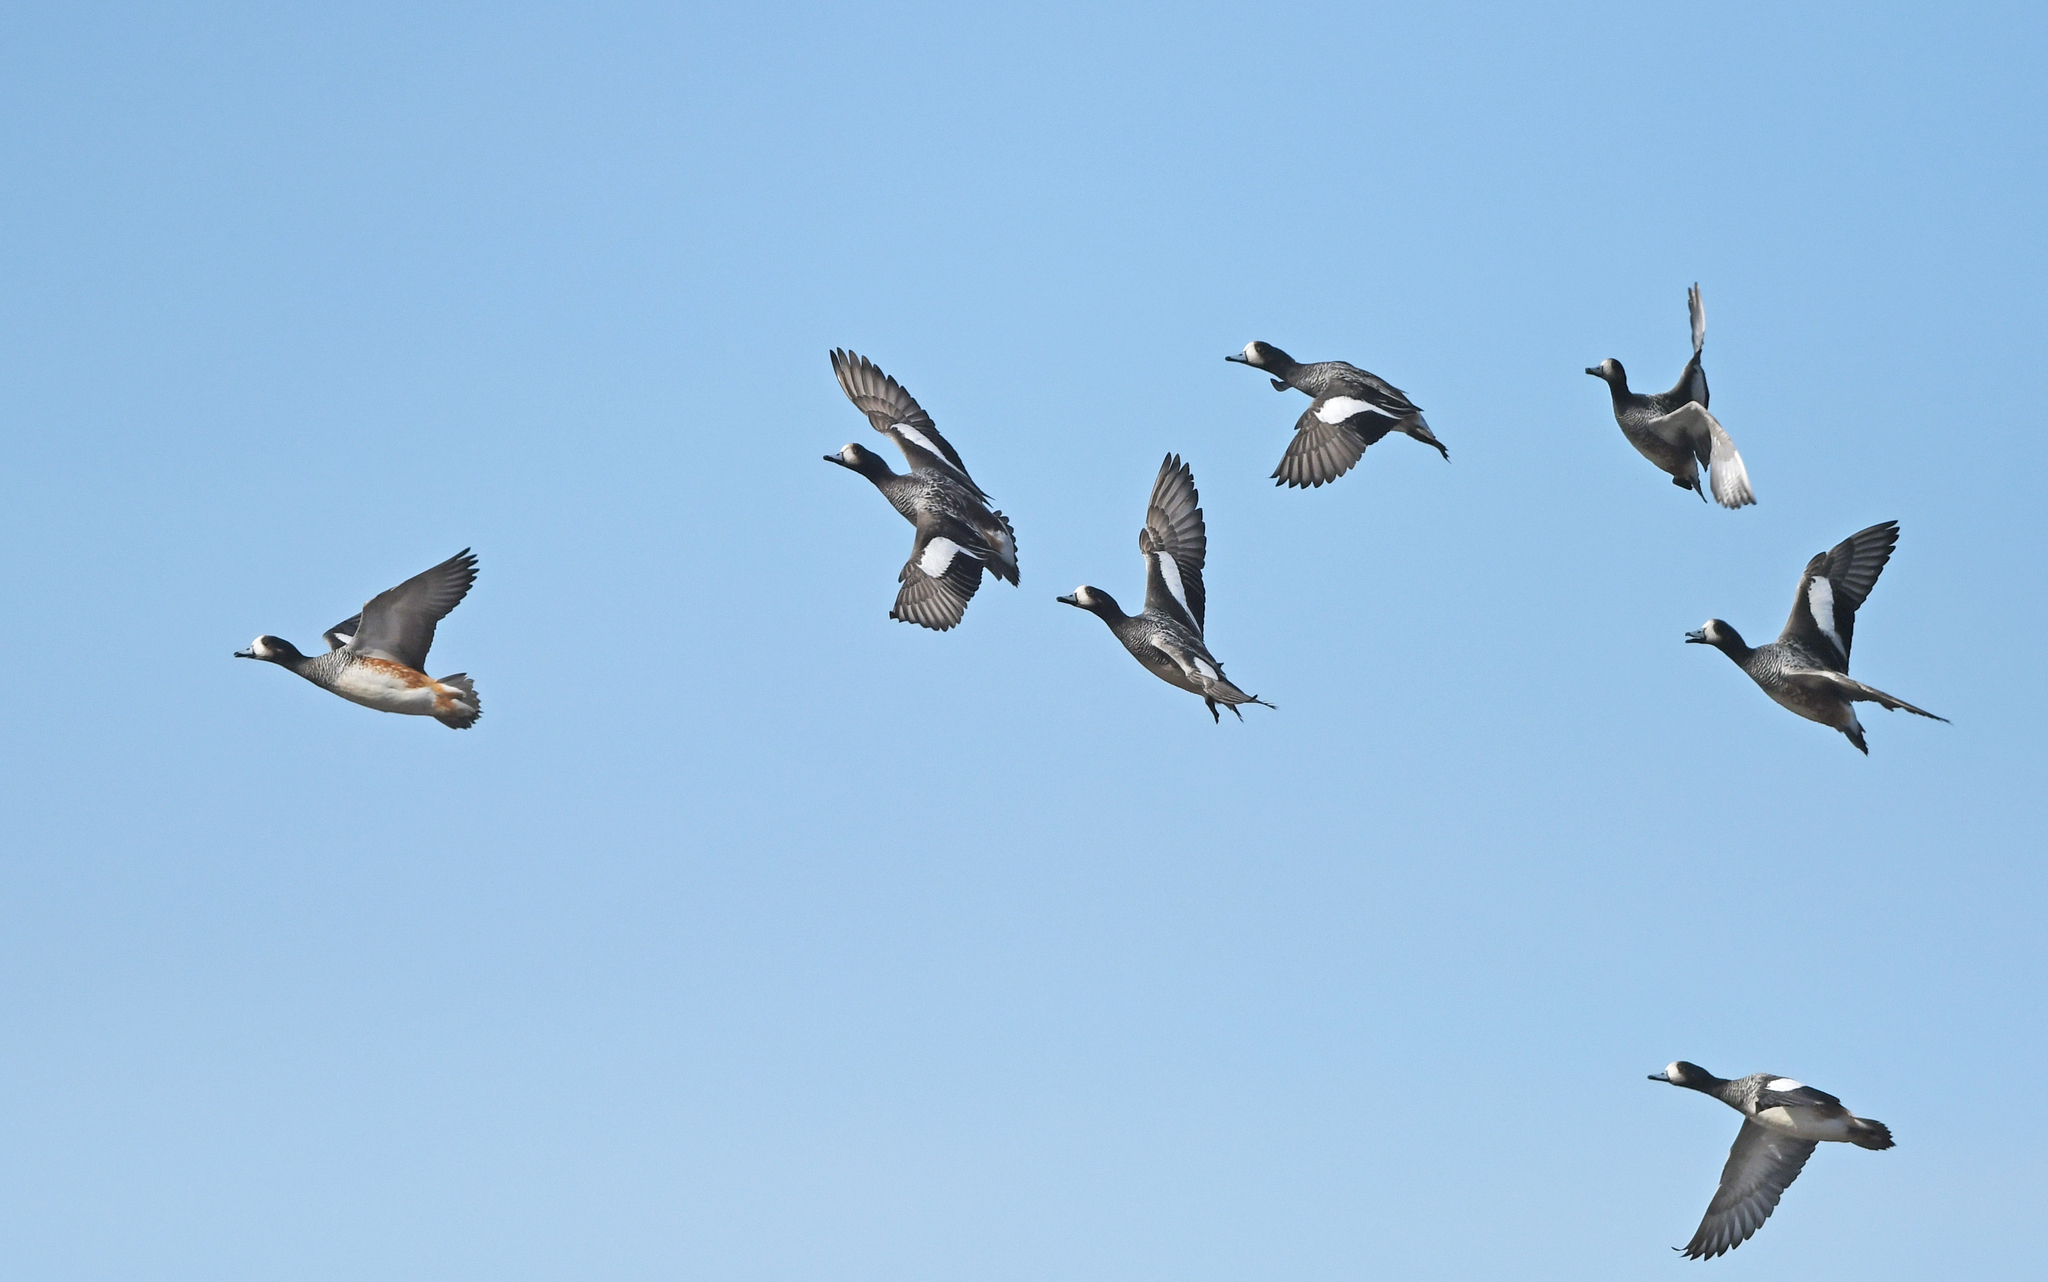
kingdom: Animalia
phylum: Chordata
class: Aves
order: Anseriformes
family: Anatidae
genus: Mareca
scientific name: Mareca sibilatrix
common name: Chiloe wigeon
